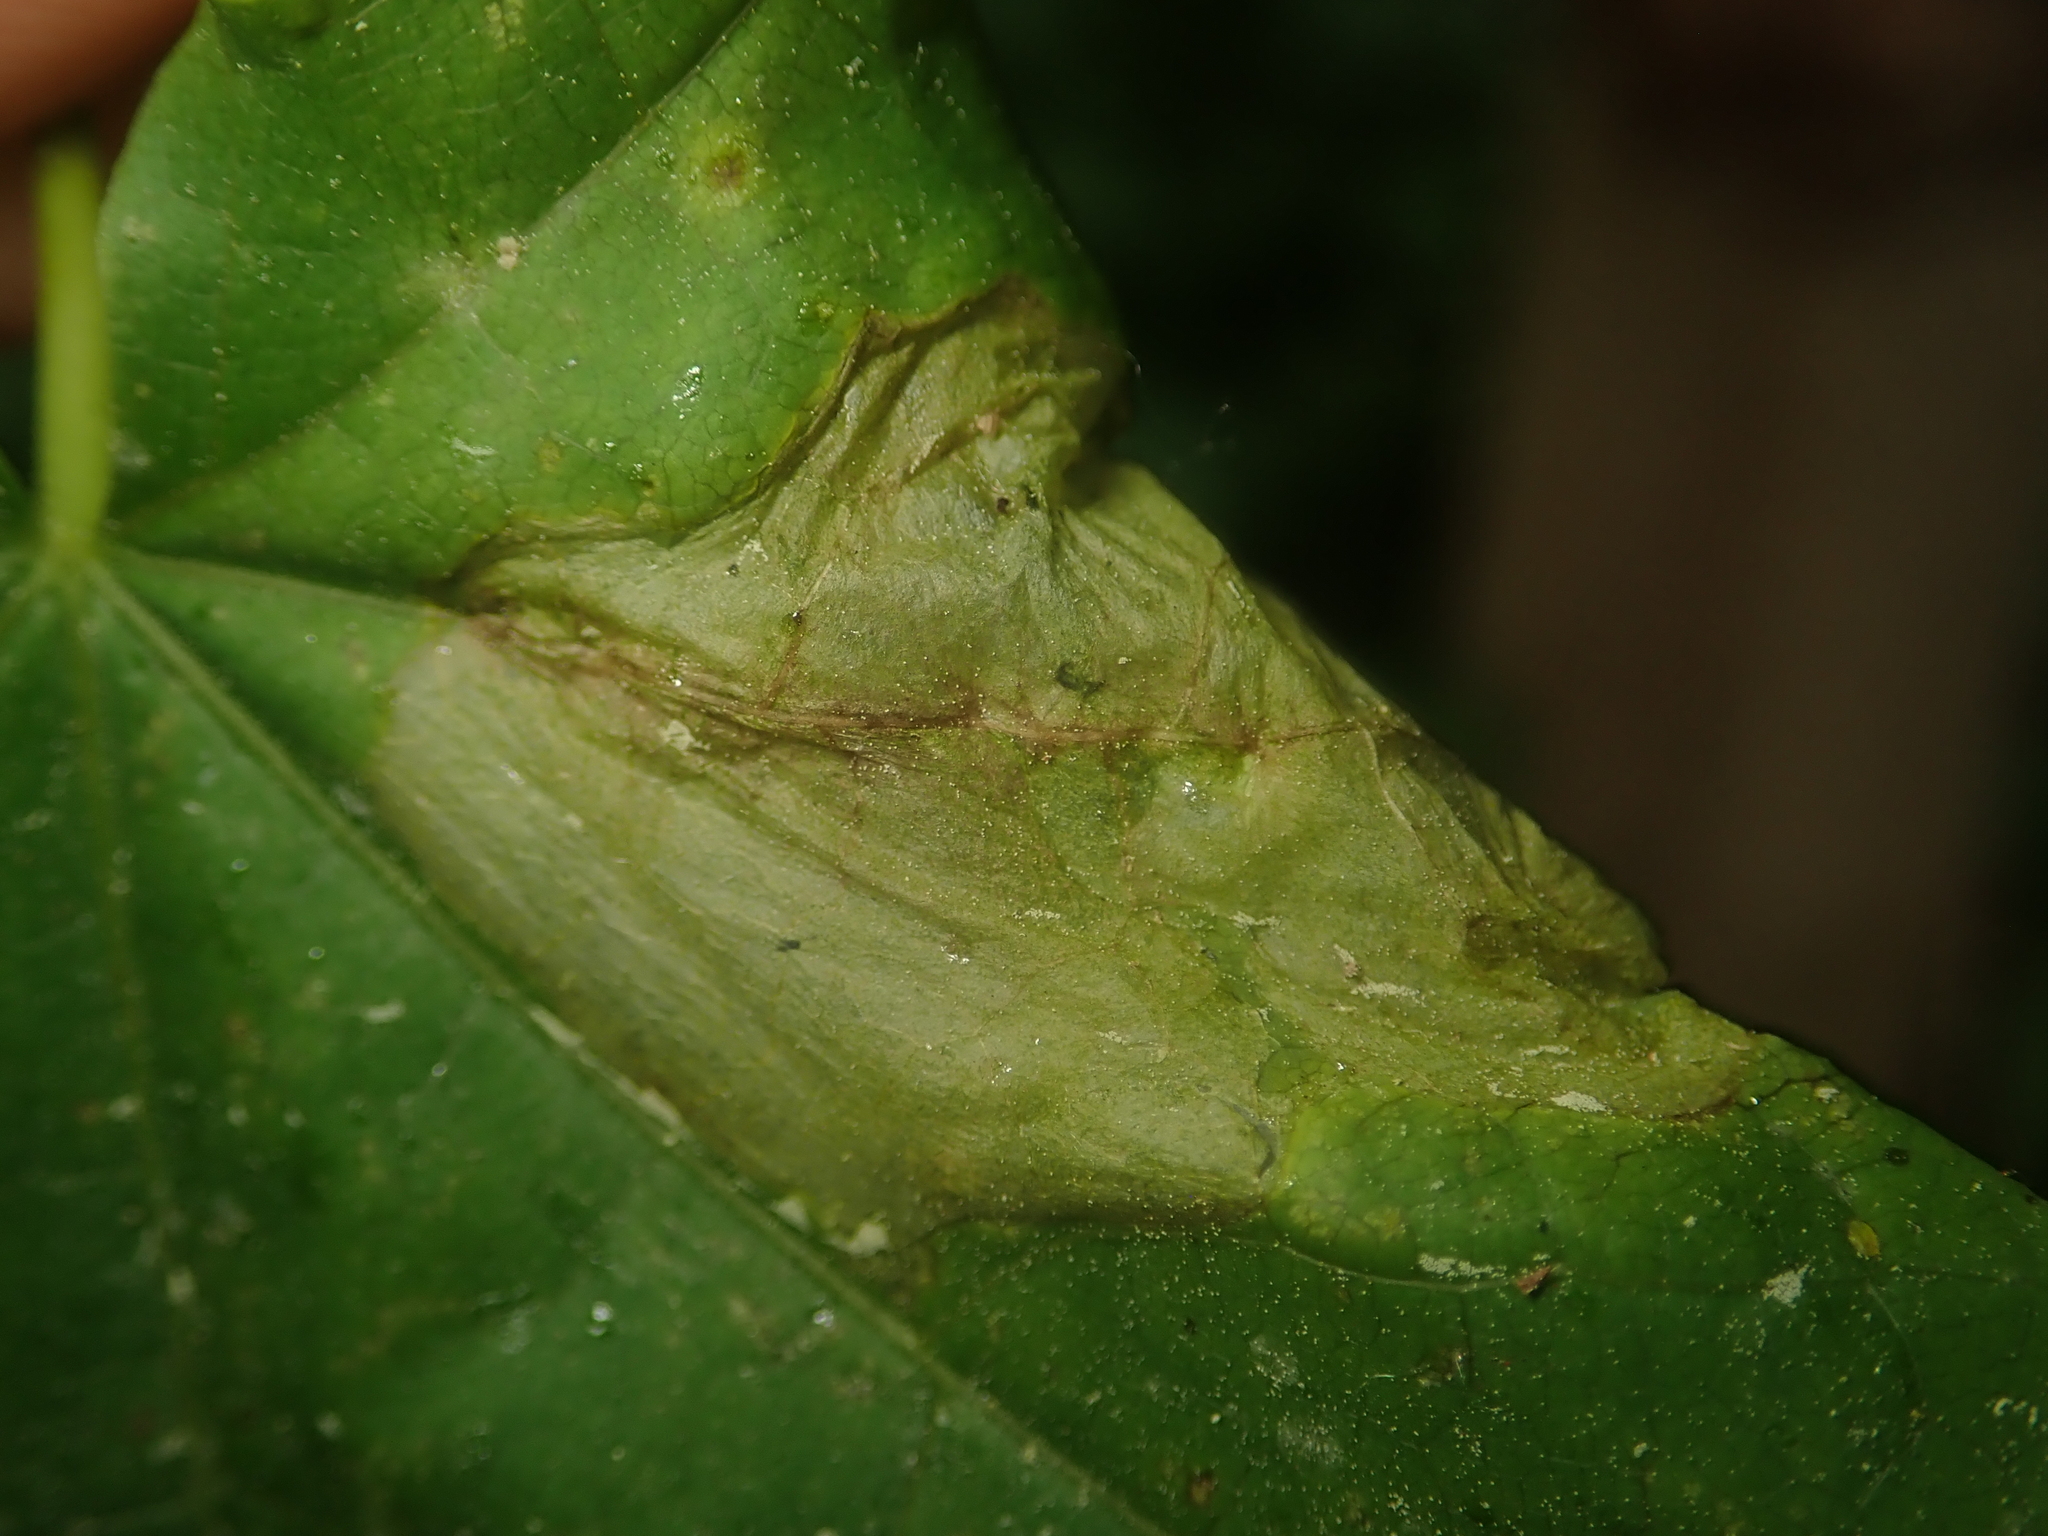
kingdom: Animalia
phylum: Arthropoda
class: Insecta
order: Hymenoptera
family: Tenthredinidae
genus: Hinatara
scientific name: Hinatara recta
